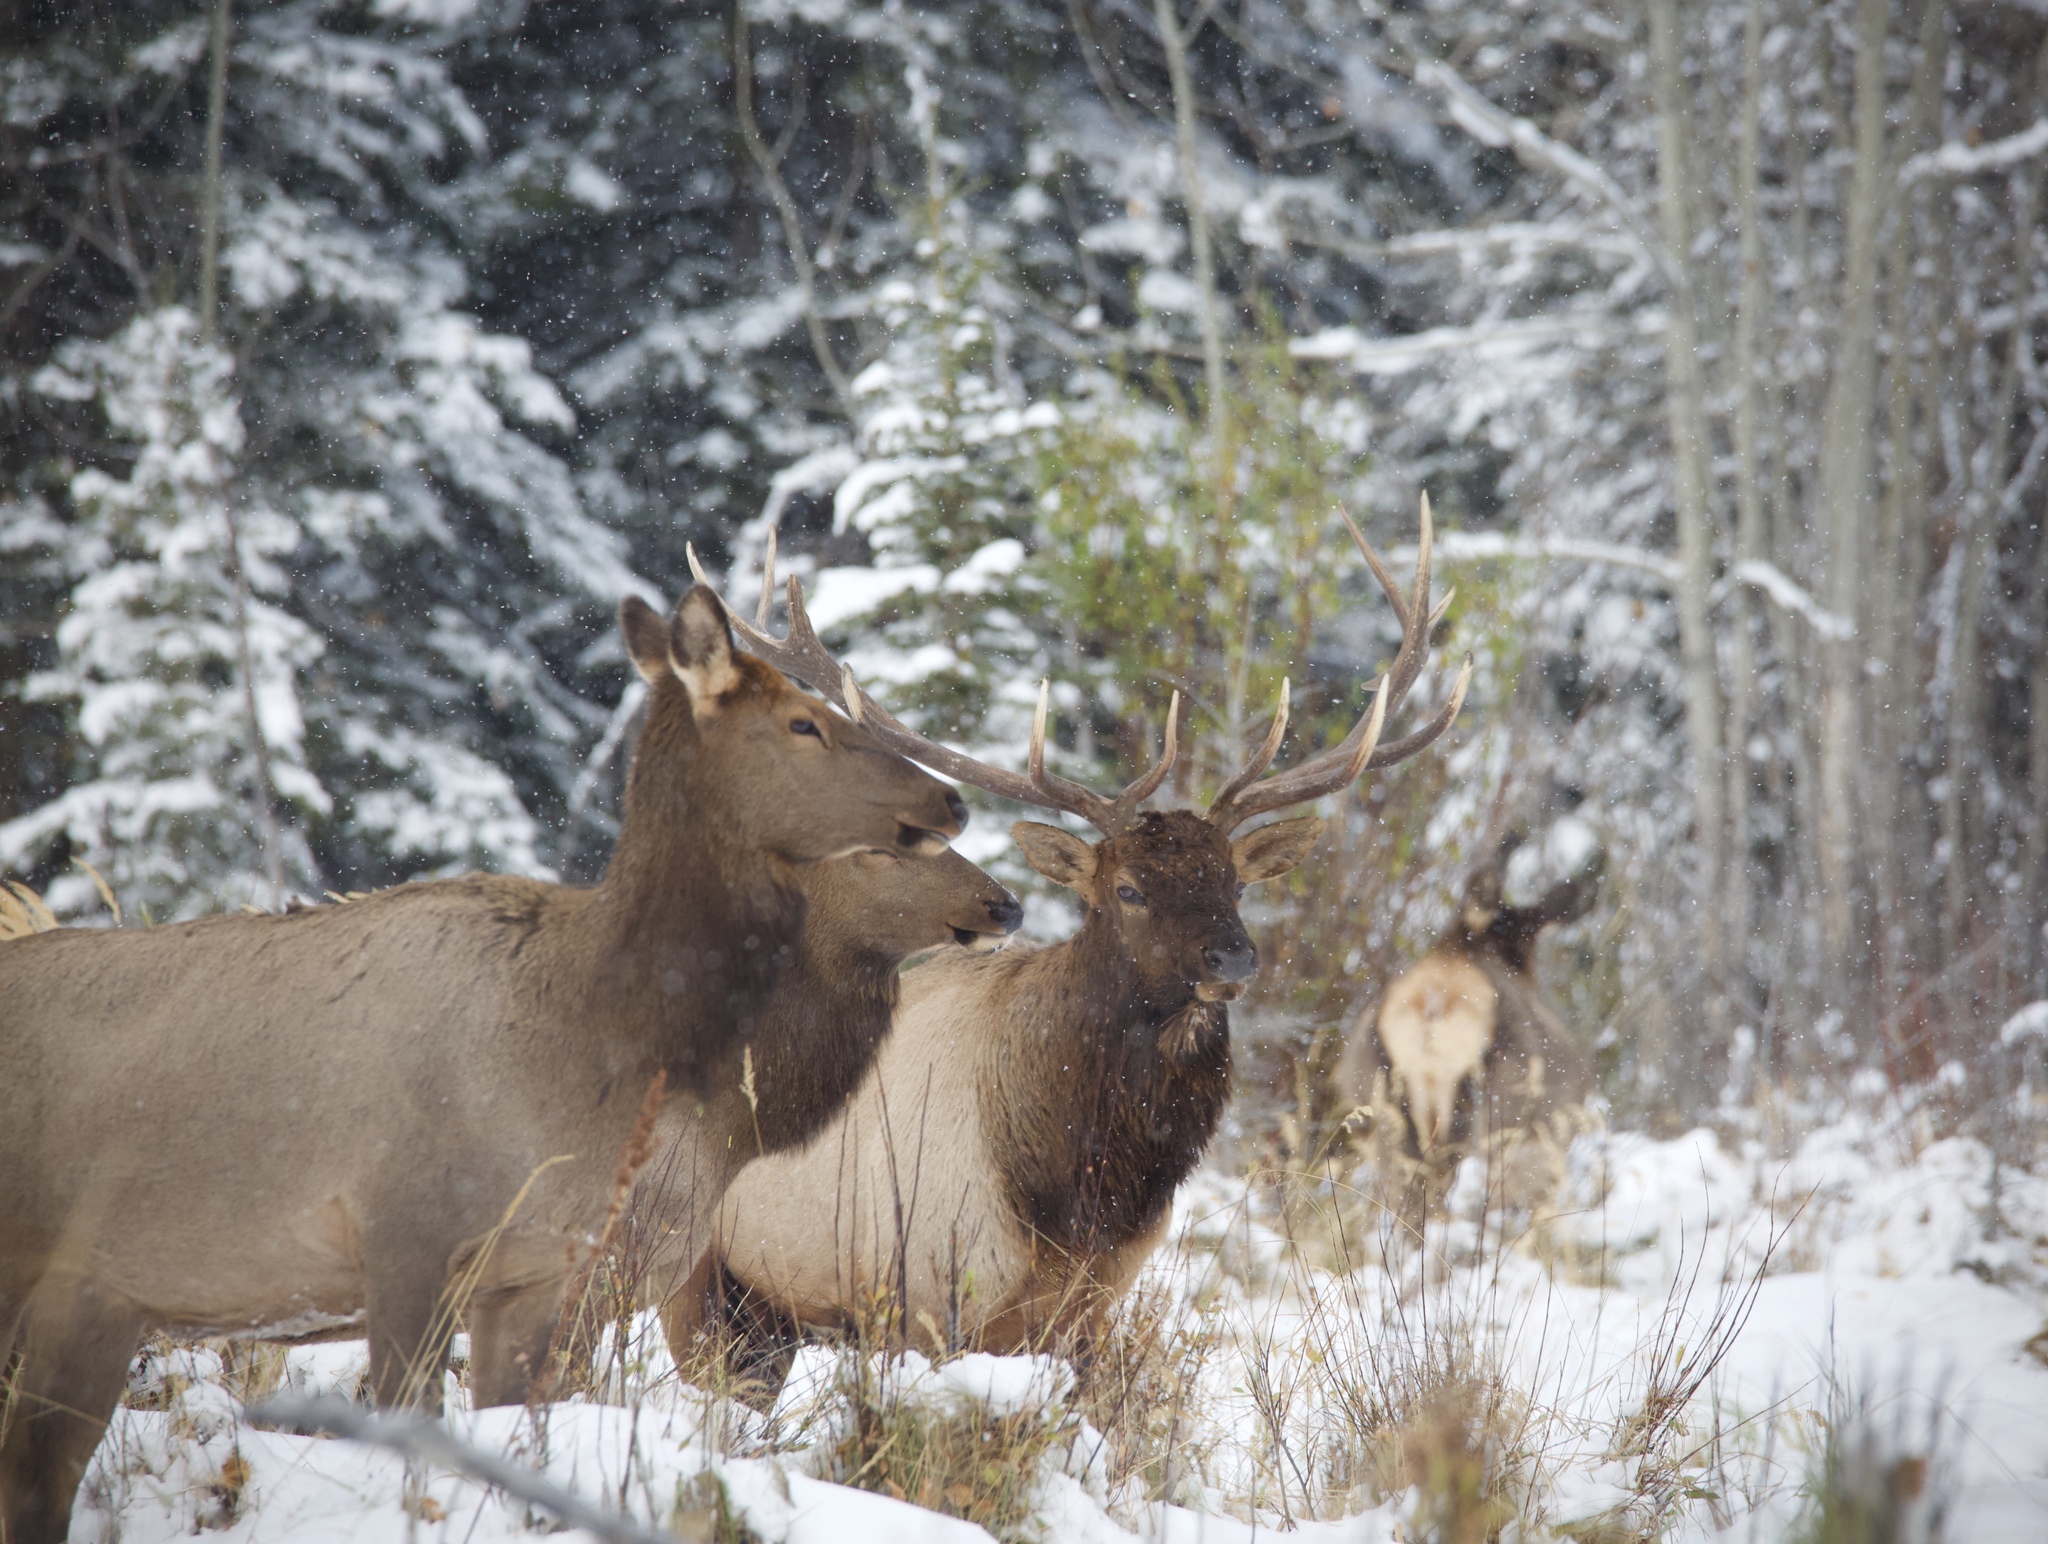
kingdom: Animalia
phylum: Chordata
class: Mammalia
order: Artiodactyla
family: Cervidae
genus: Cervus
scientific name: Cervus elaphus
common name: Red deer
